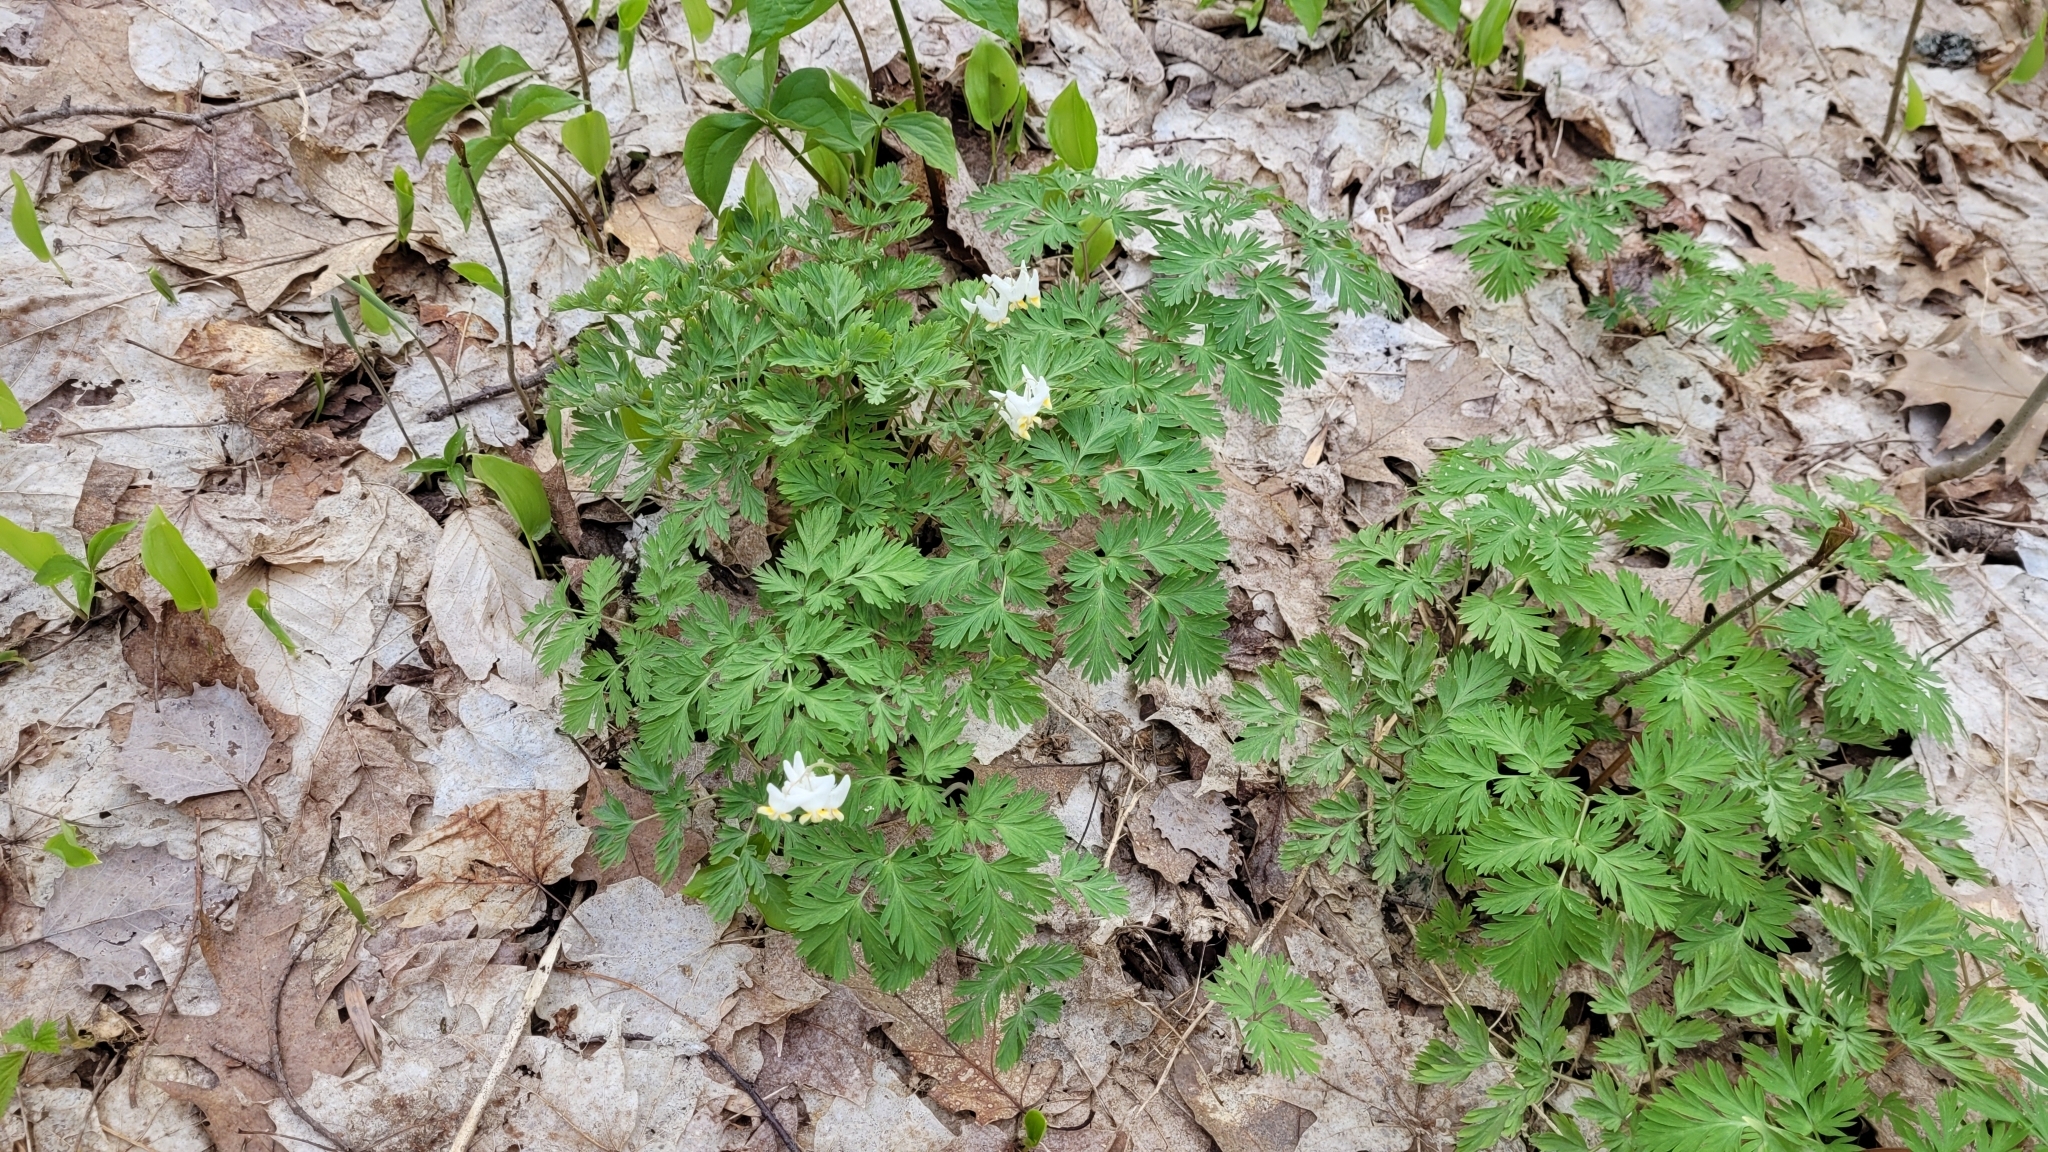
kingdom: Plantae
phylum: Tracheophyta
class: Magnoliopsida
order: Ranunculales
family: Papaveraceae
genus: Dicentra
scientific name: Dicentra cucullaria
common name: Dutchman's breeches
